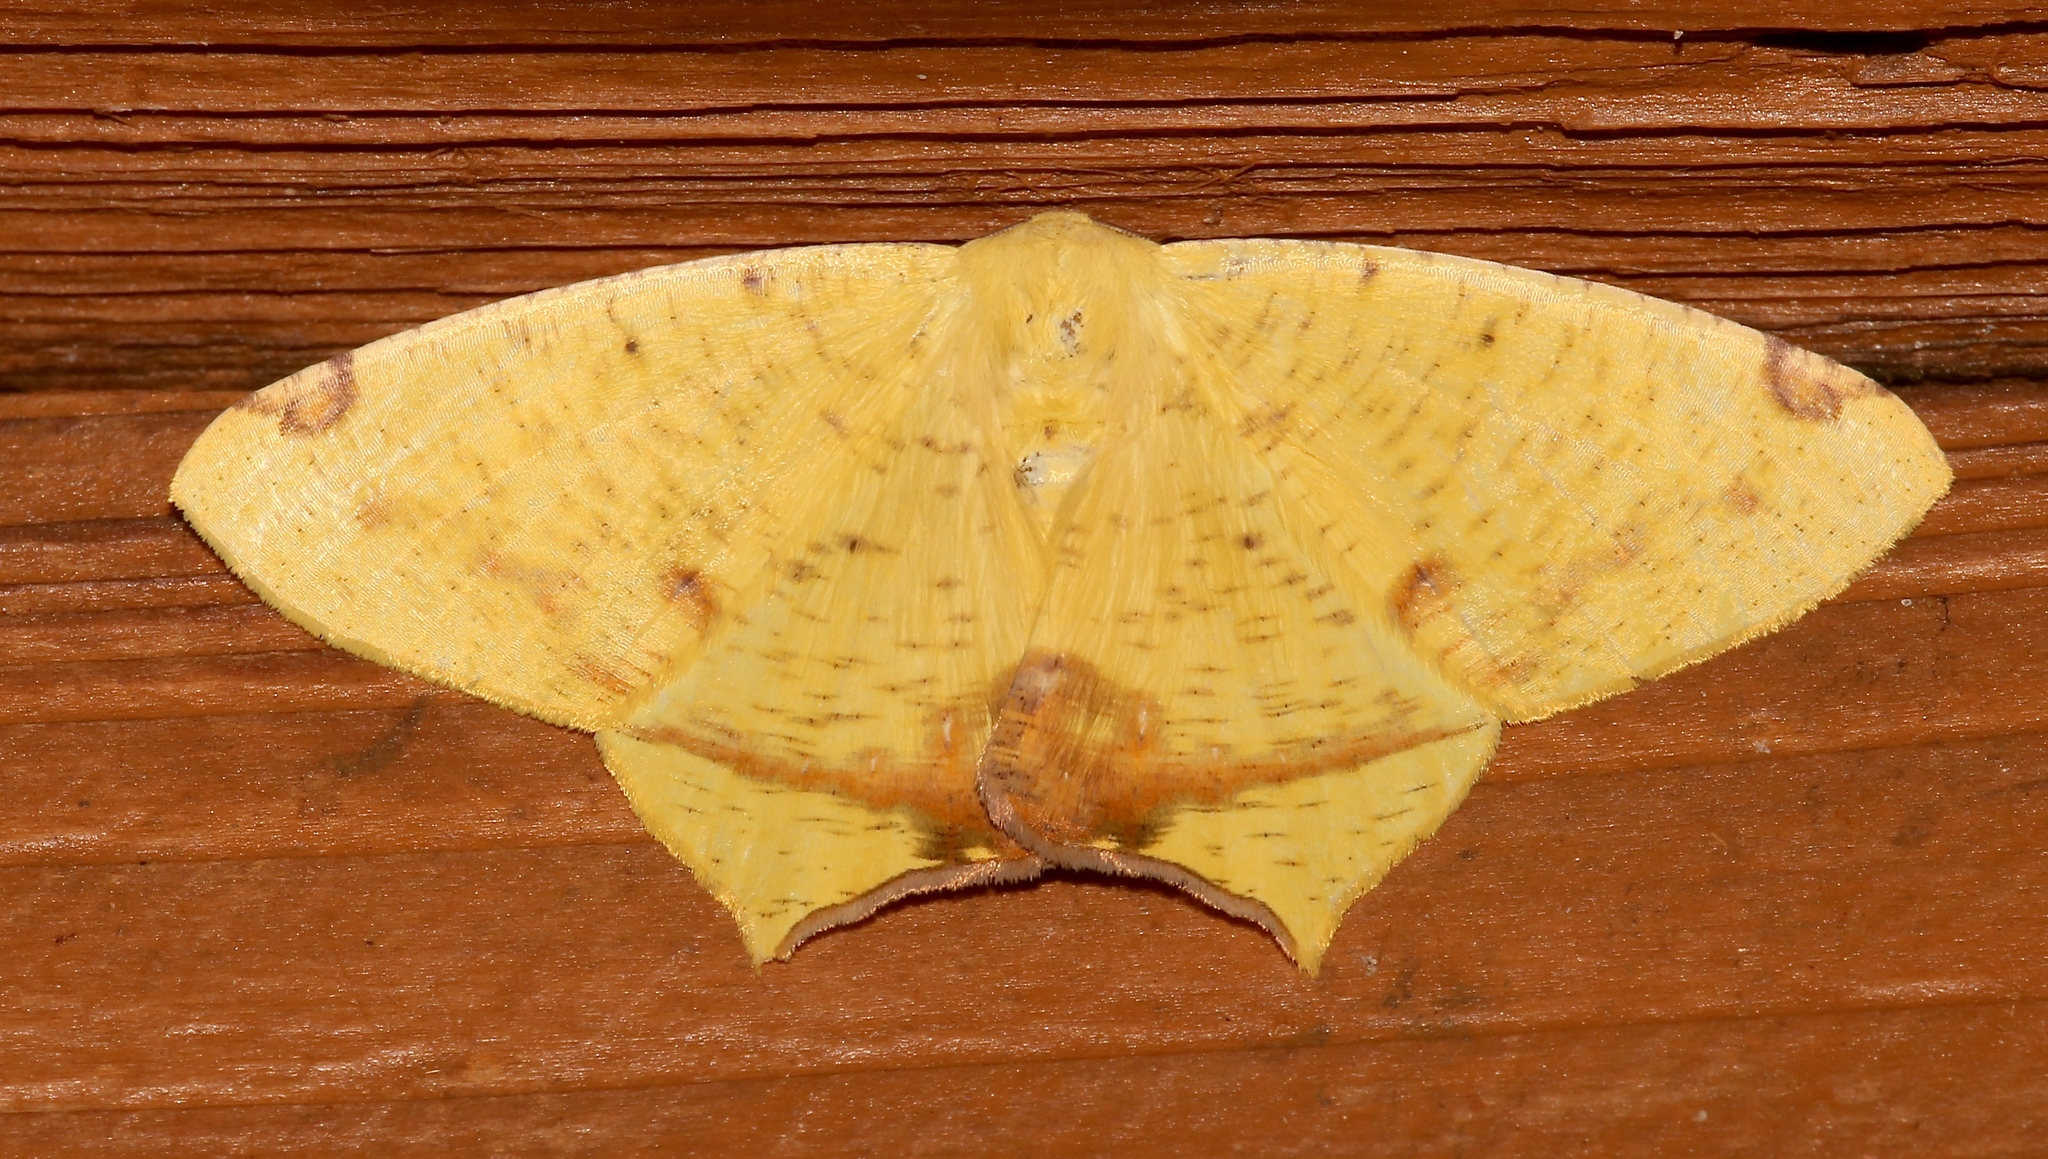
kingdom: Animalia
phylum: Arthropoda
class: Insecta
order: Lepidoptera
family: Geometridae
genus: Nepheloleuca
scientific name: Nepheloleuca politia
